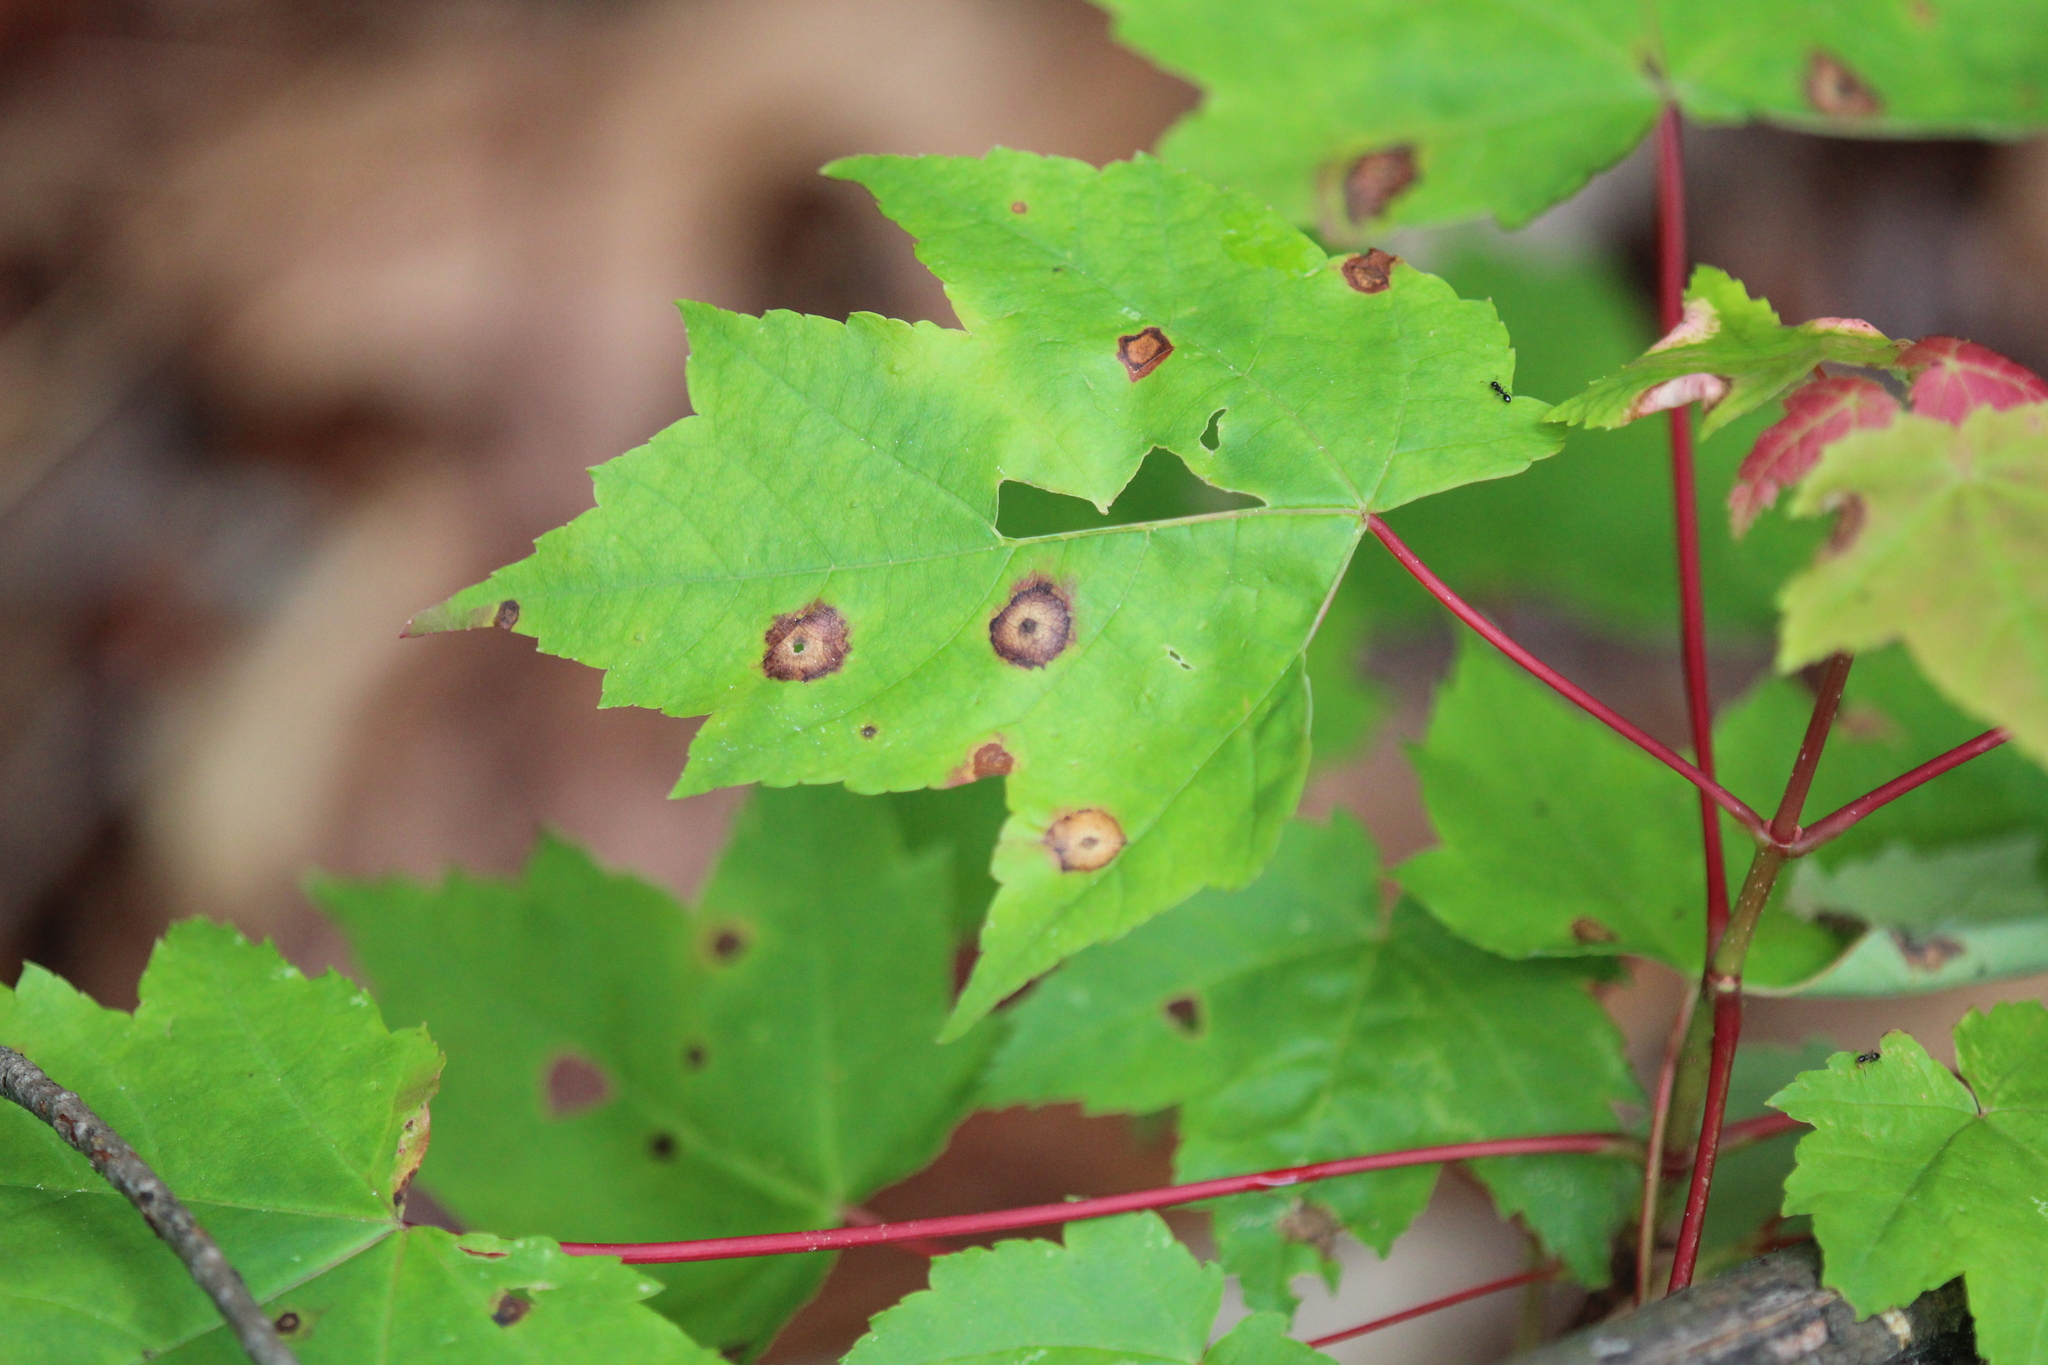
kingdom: Animalia
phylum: Arthropoda
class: Insecta
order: Diptera
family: Cecidomyiidae
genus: Acericecis
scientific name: Acericecis ocellaris
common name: Ocellate gall midge
